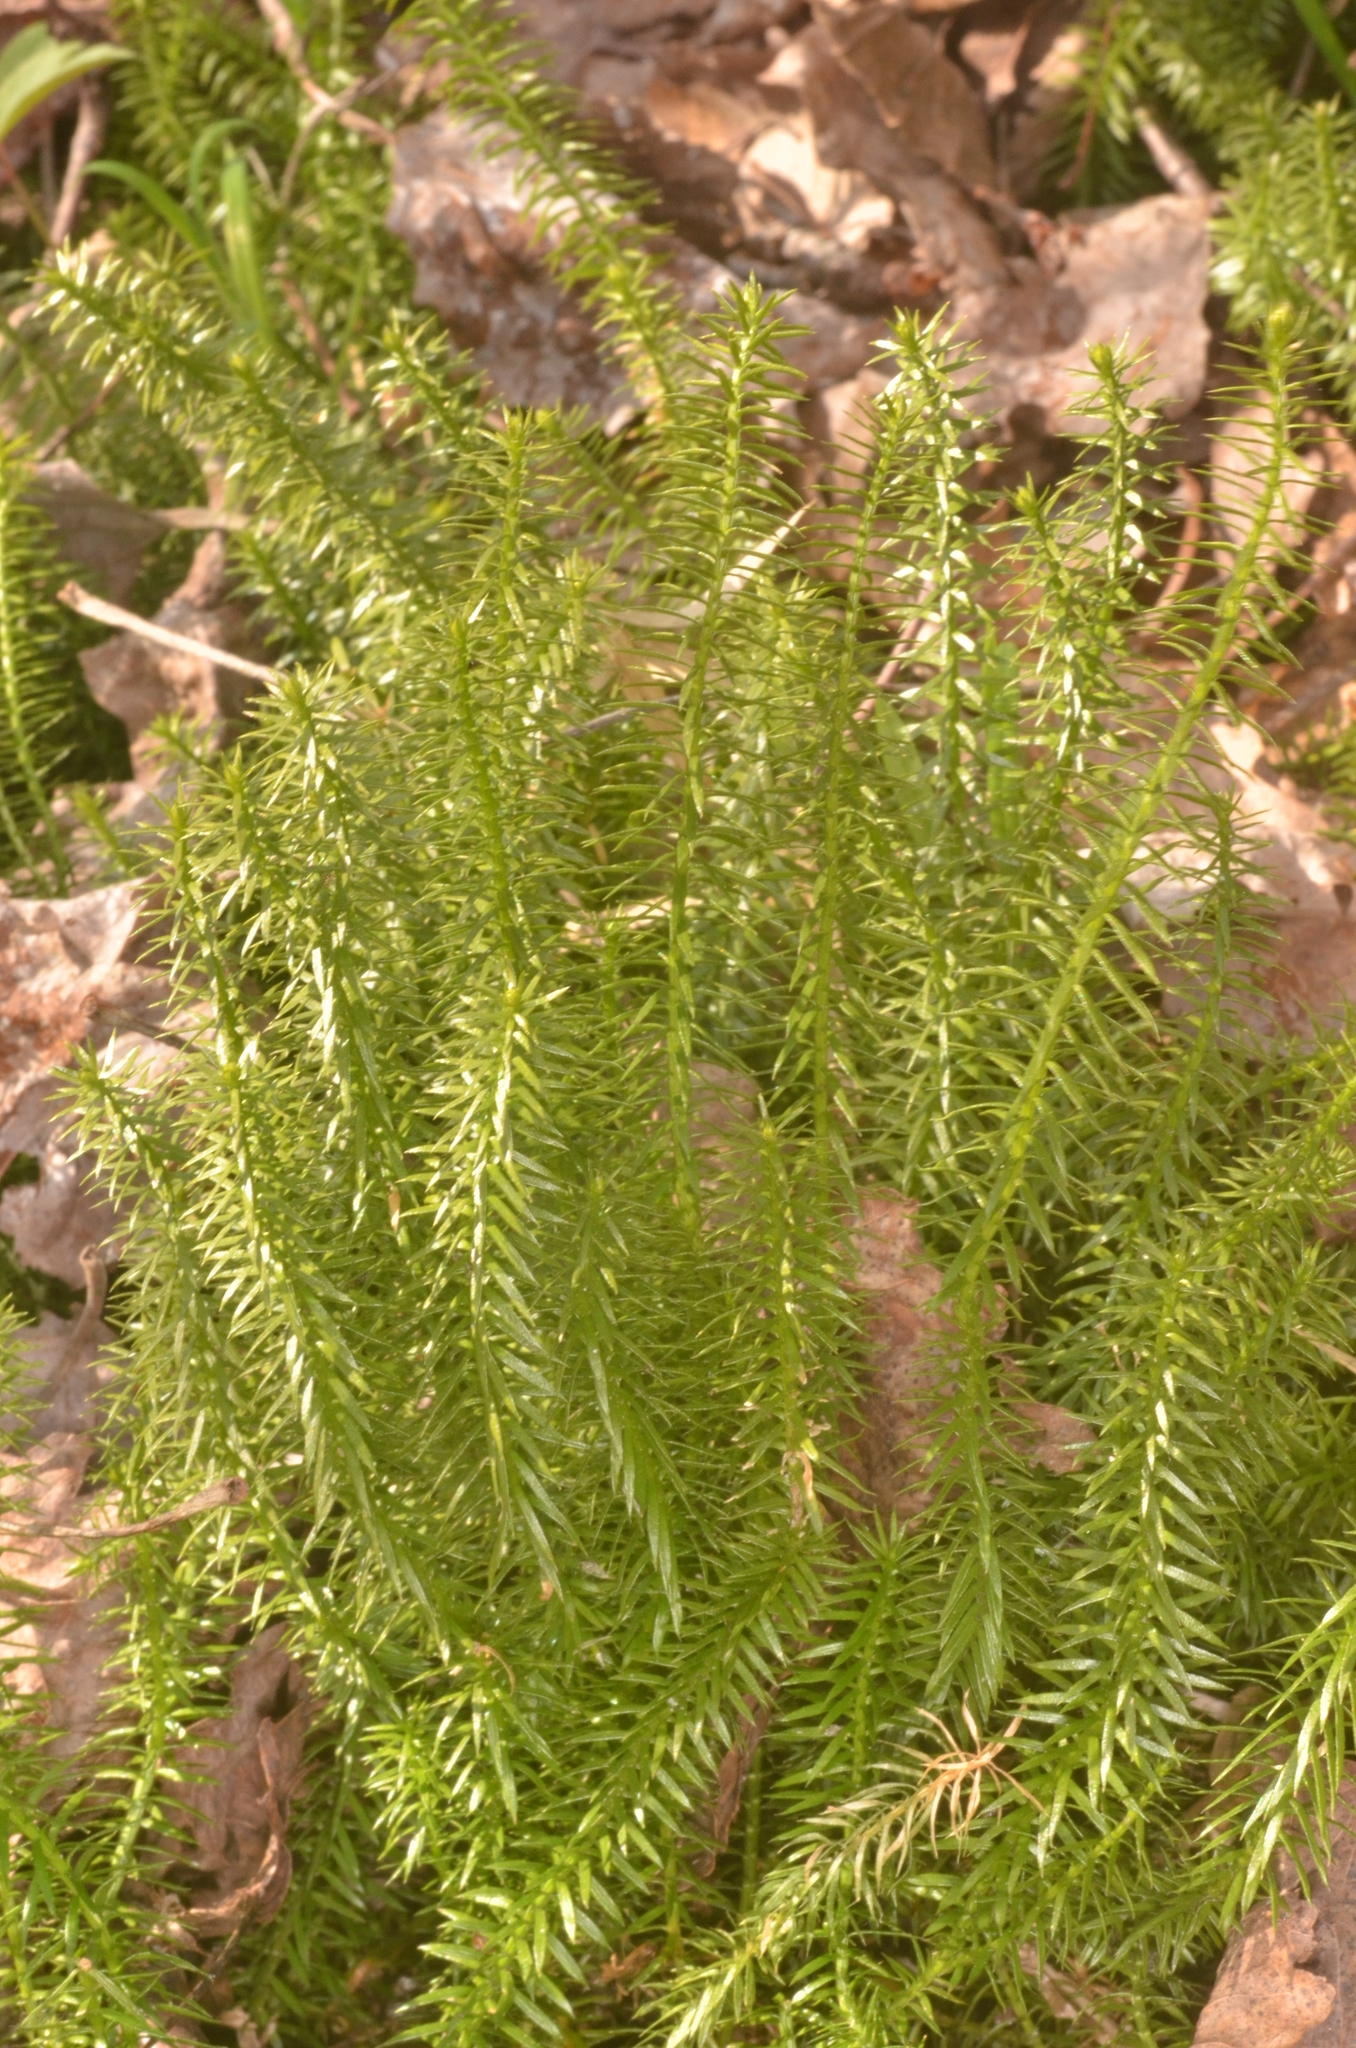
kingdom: Plantae
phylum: Tracheophyta
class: Lycopodiopsida
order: Lycopodiales
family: Lycopodiaceae
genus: Spinulum
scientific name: Spinulum annotinum
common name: Interrupted club-moss
